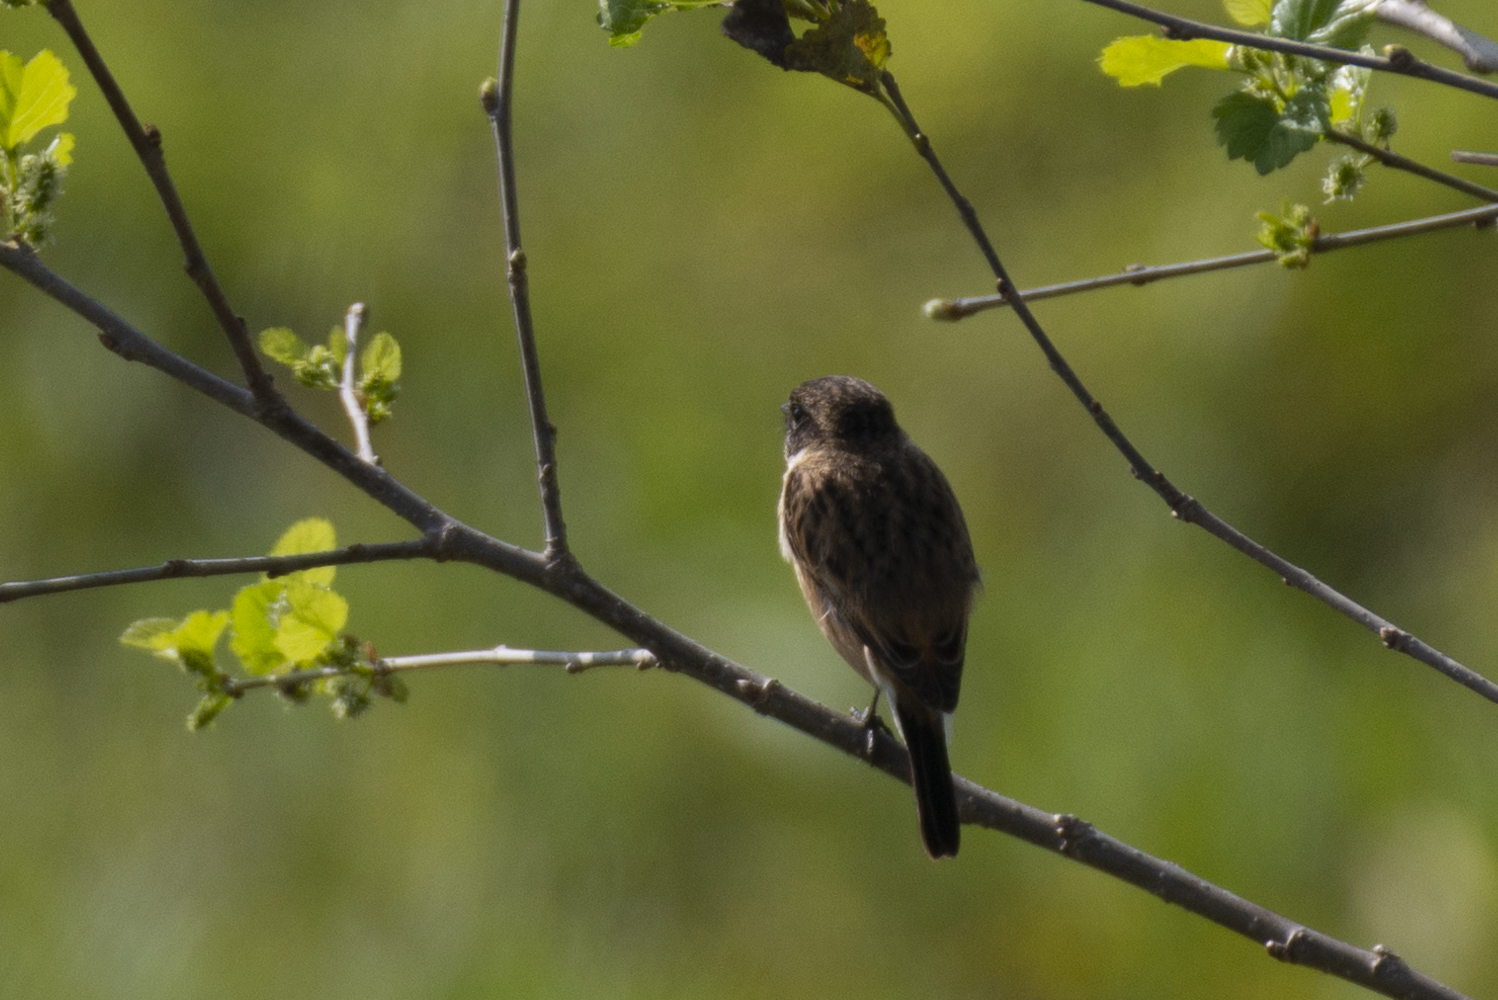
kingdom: Animalia
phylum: Chordata
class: Aves
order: Passeriformes
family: Muscicapidae
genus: Saxicola
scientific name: Saxicola maurus
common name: Siberian stonechat
